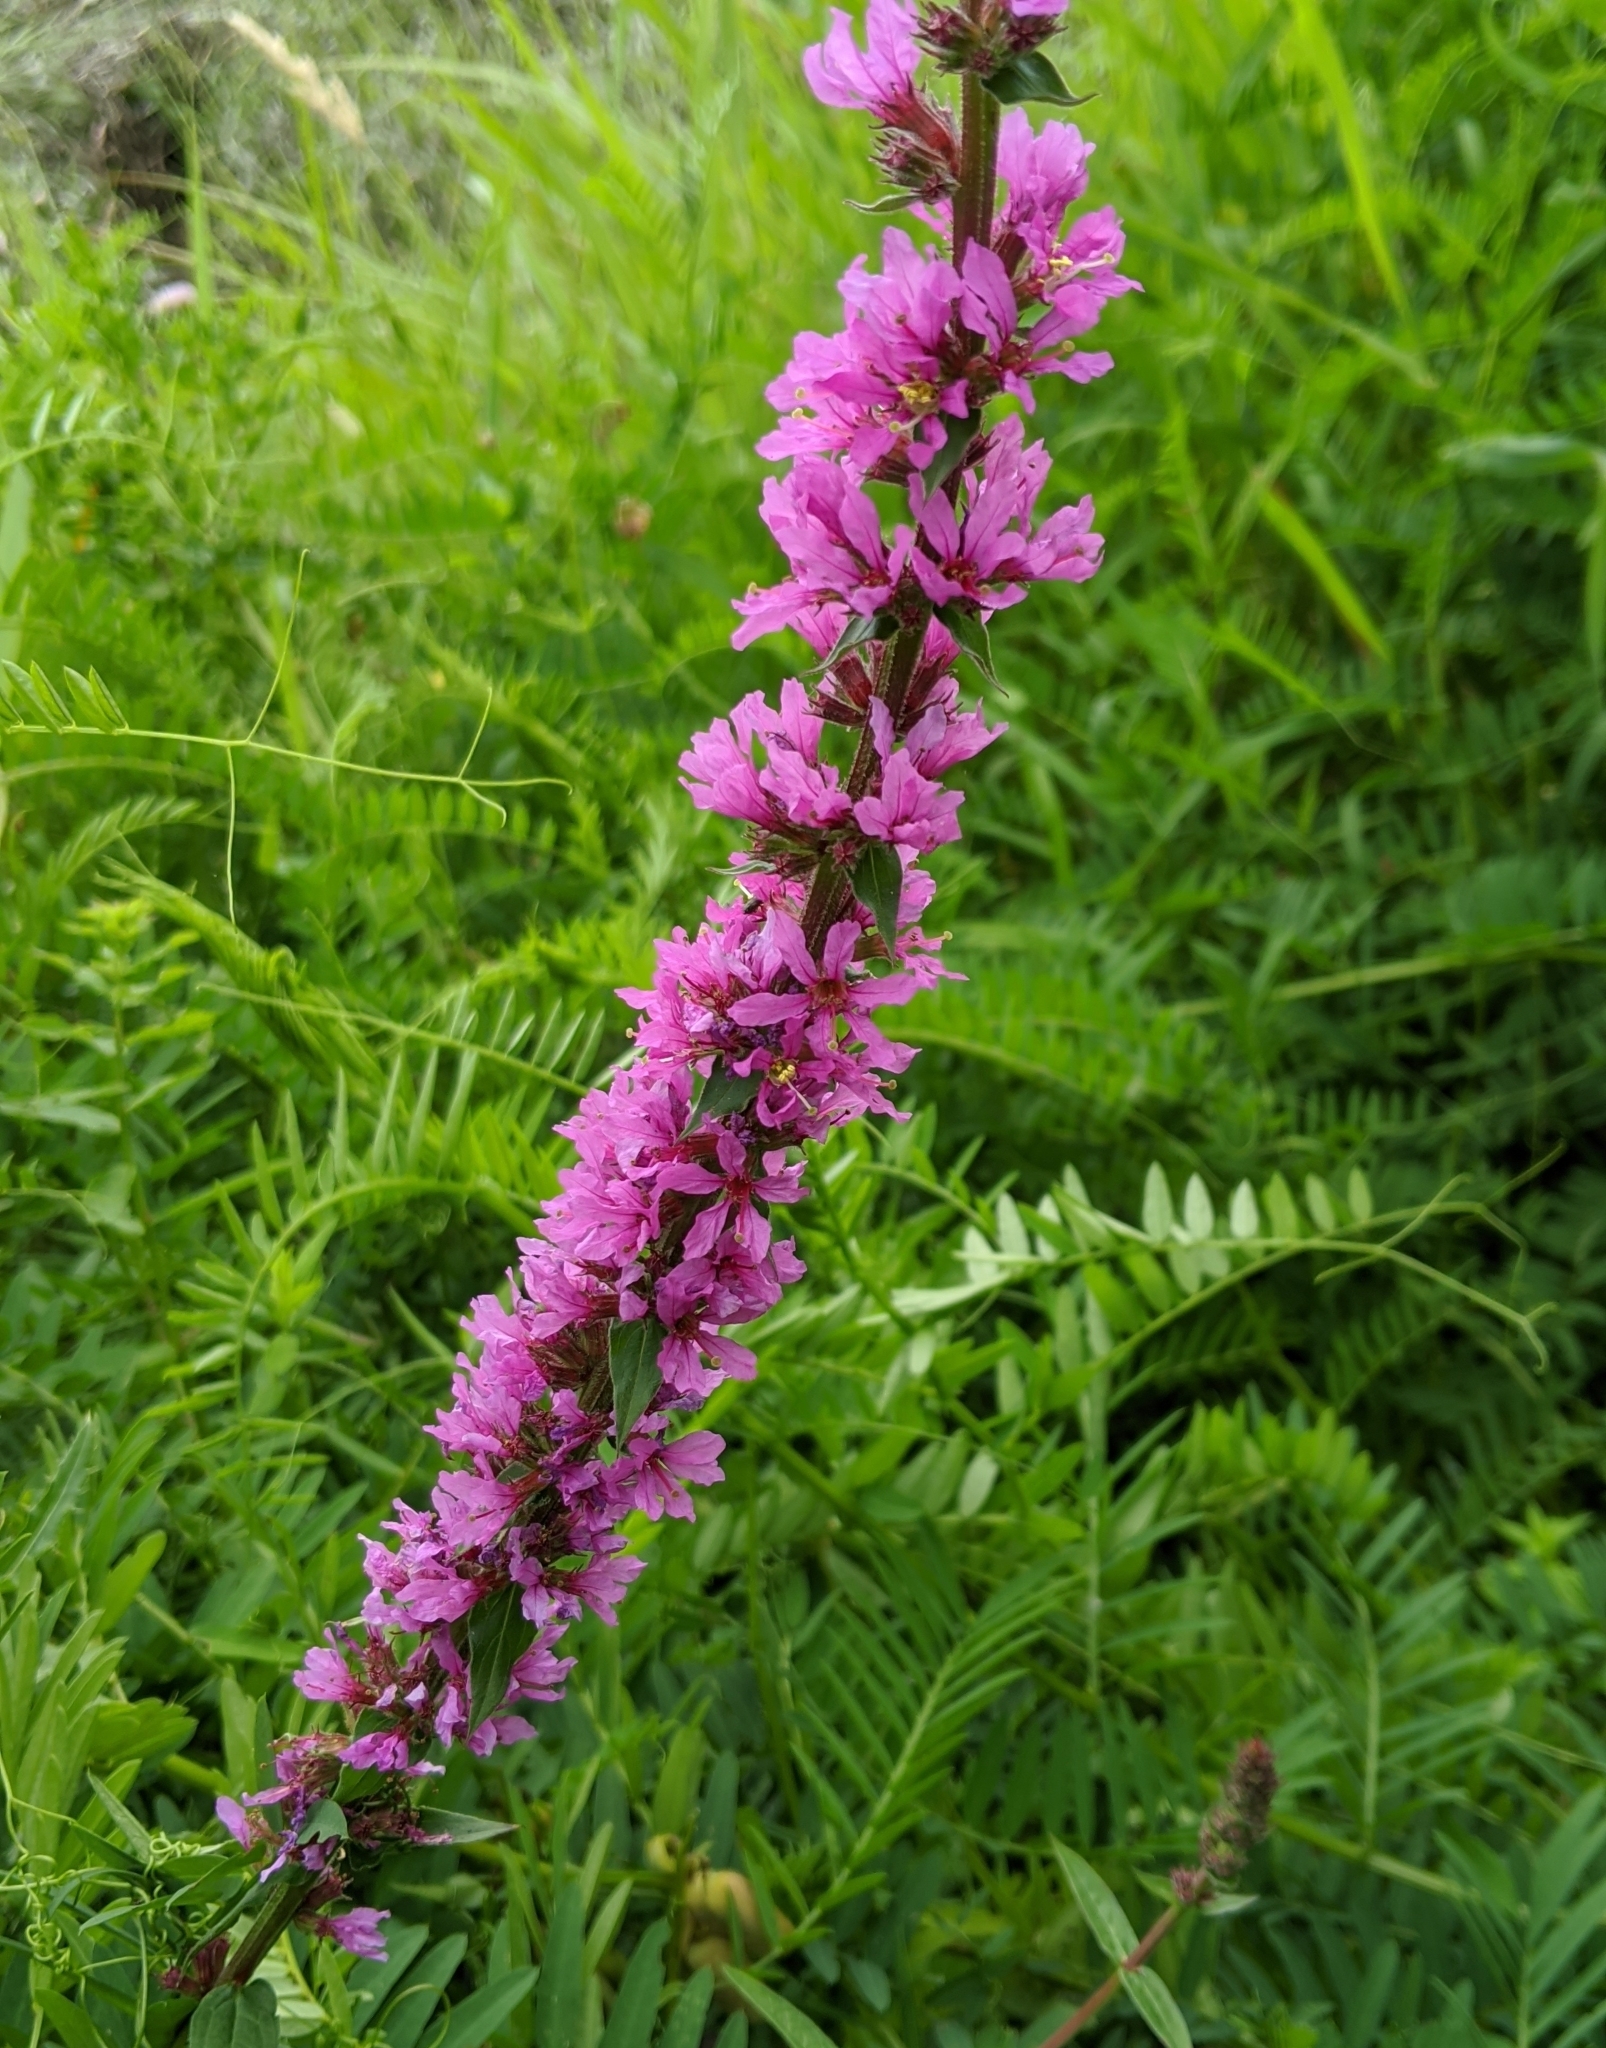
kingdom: Plantae
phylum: Tracheophyta
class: Magnoliopsida
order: Myrtales
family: Lythraceae
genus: Lythrum
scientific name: Lythrum salicaria
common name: Purple loosestrife
